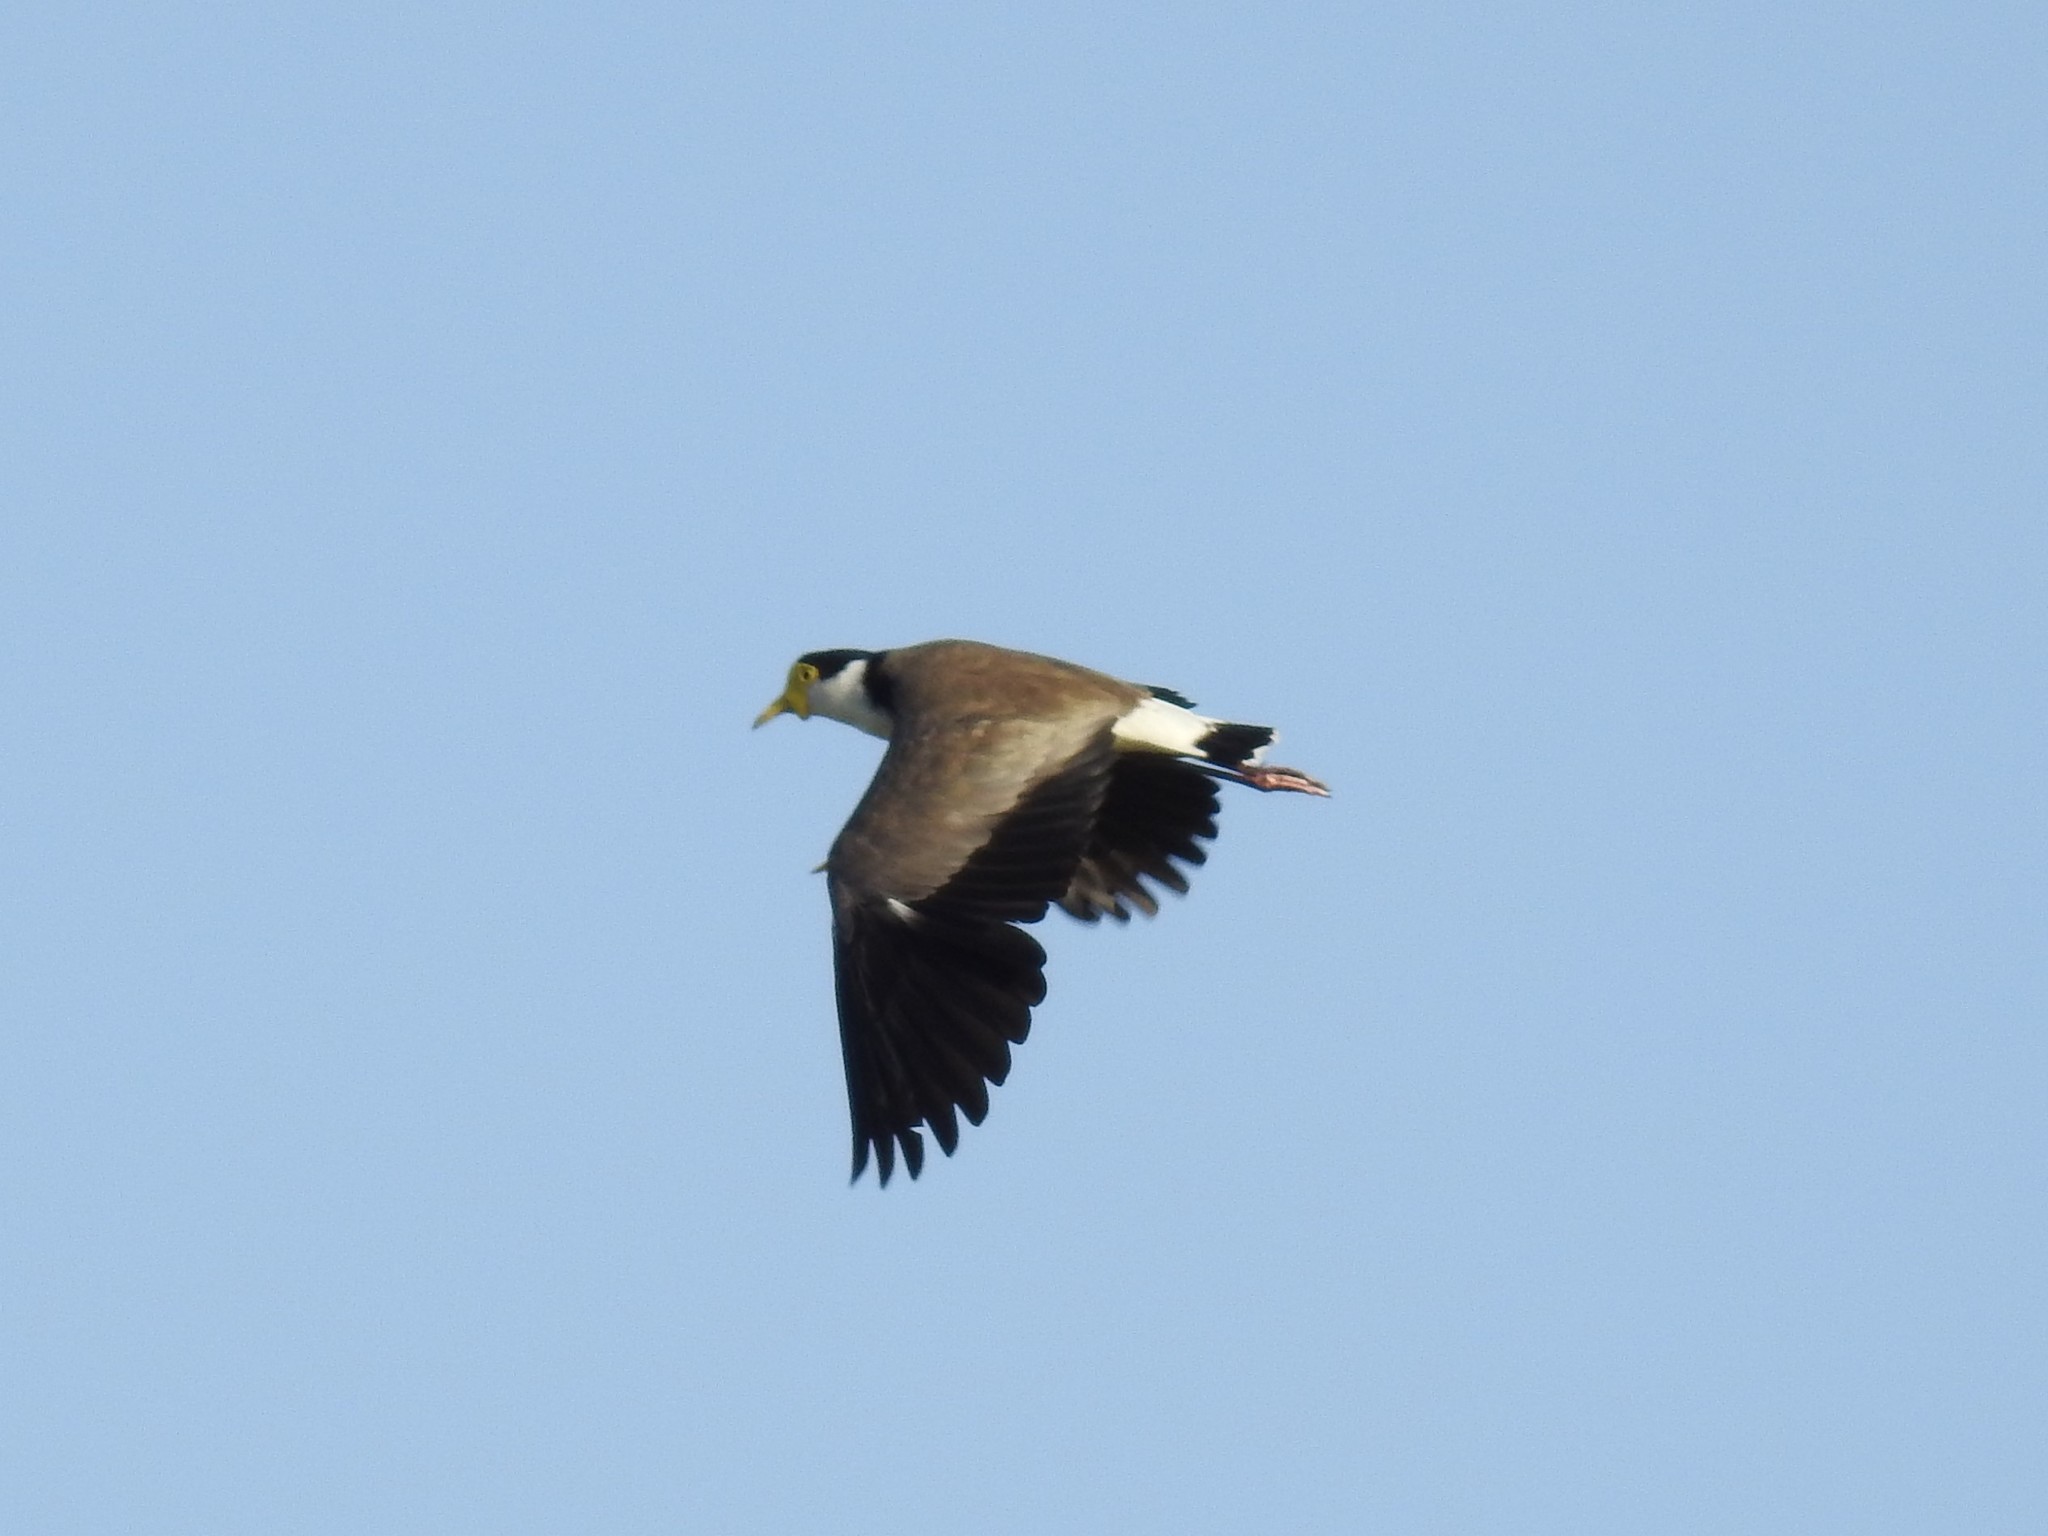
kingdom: Animalia
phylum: Chordata
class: Aves
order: Charadriiformes
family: Charadriidae
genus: Vanellus
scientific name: Vanellus miles
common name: Masked lapwing
